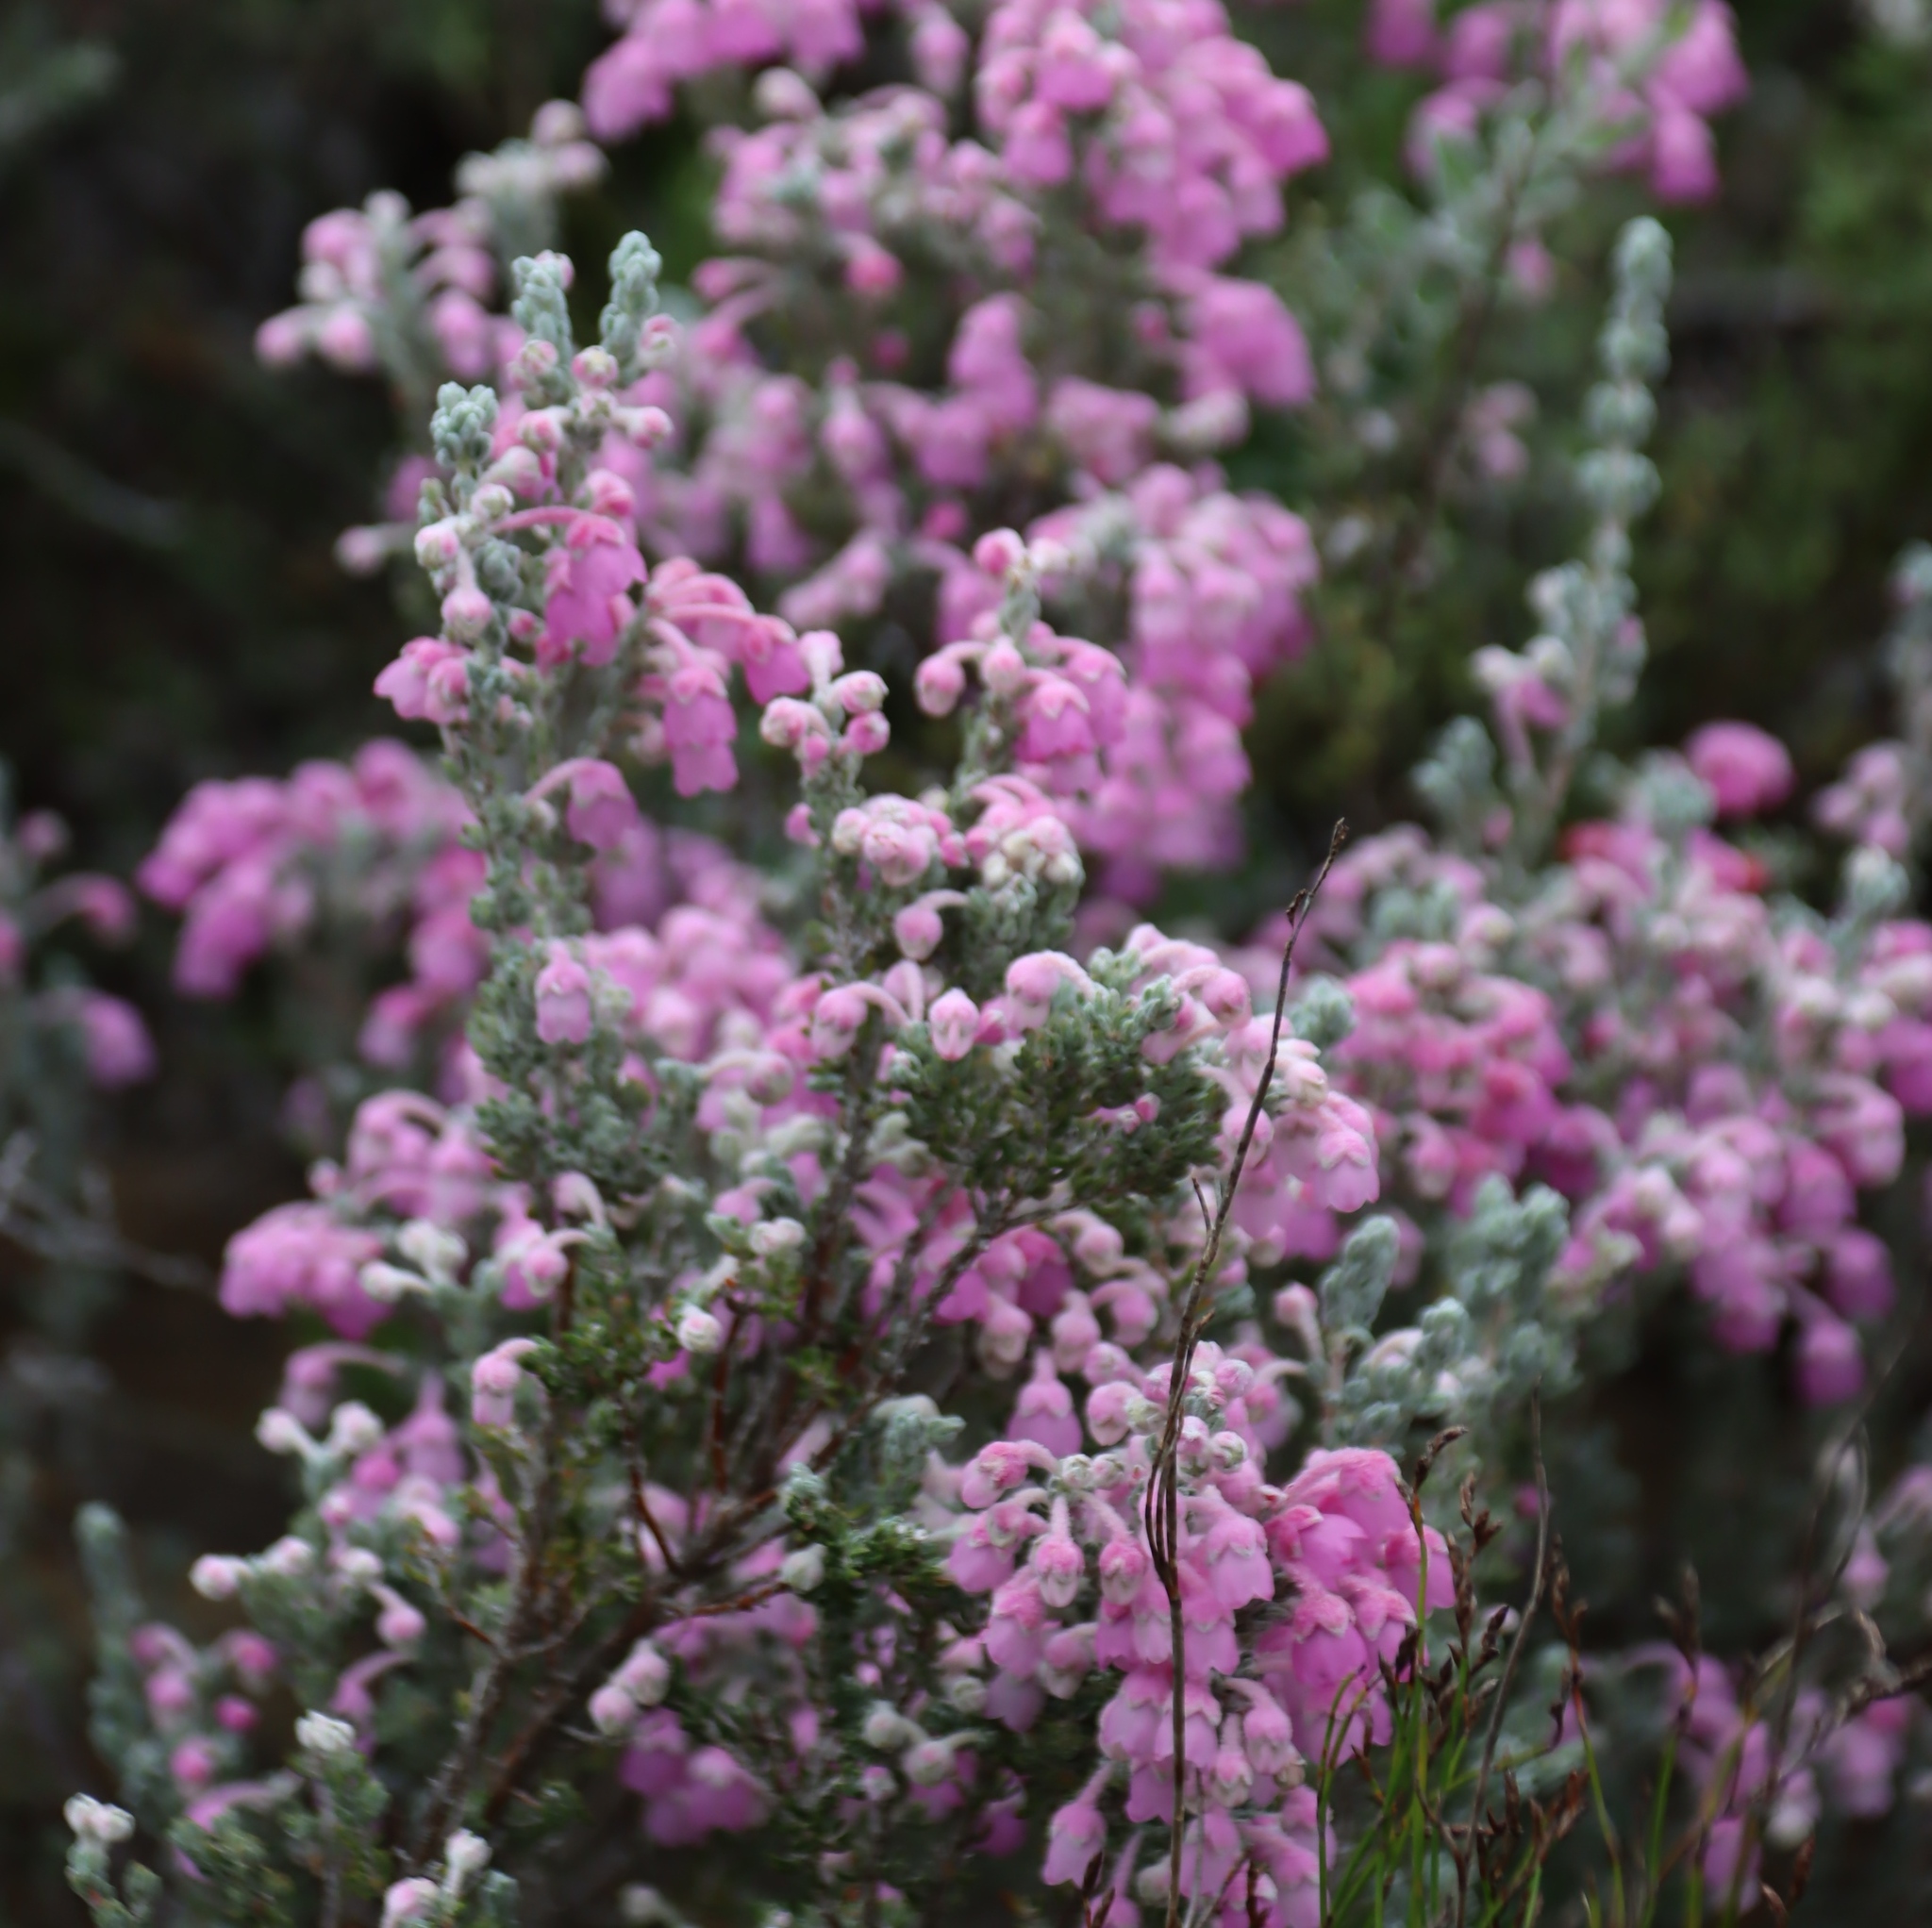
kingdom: Plantae
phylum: Tracheophyta
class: Magnoliopsida
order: Ericales
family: Ericaceae
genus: Erica
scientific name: Erica passerina
